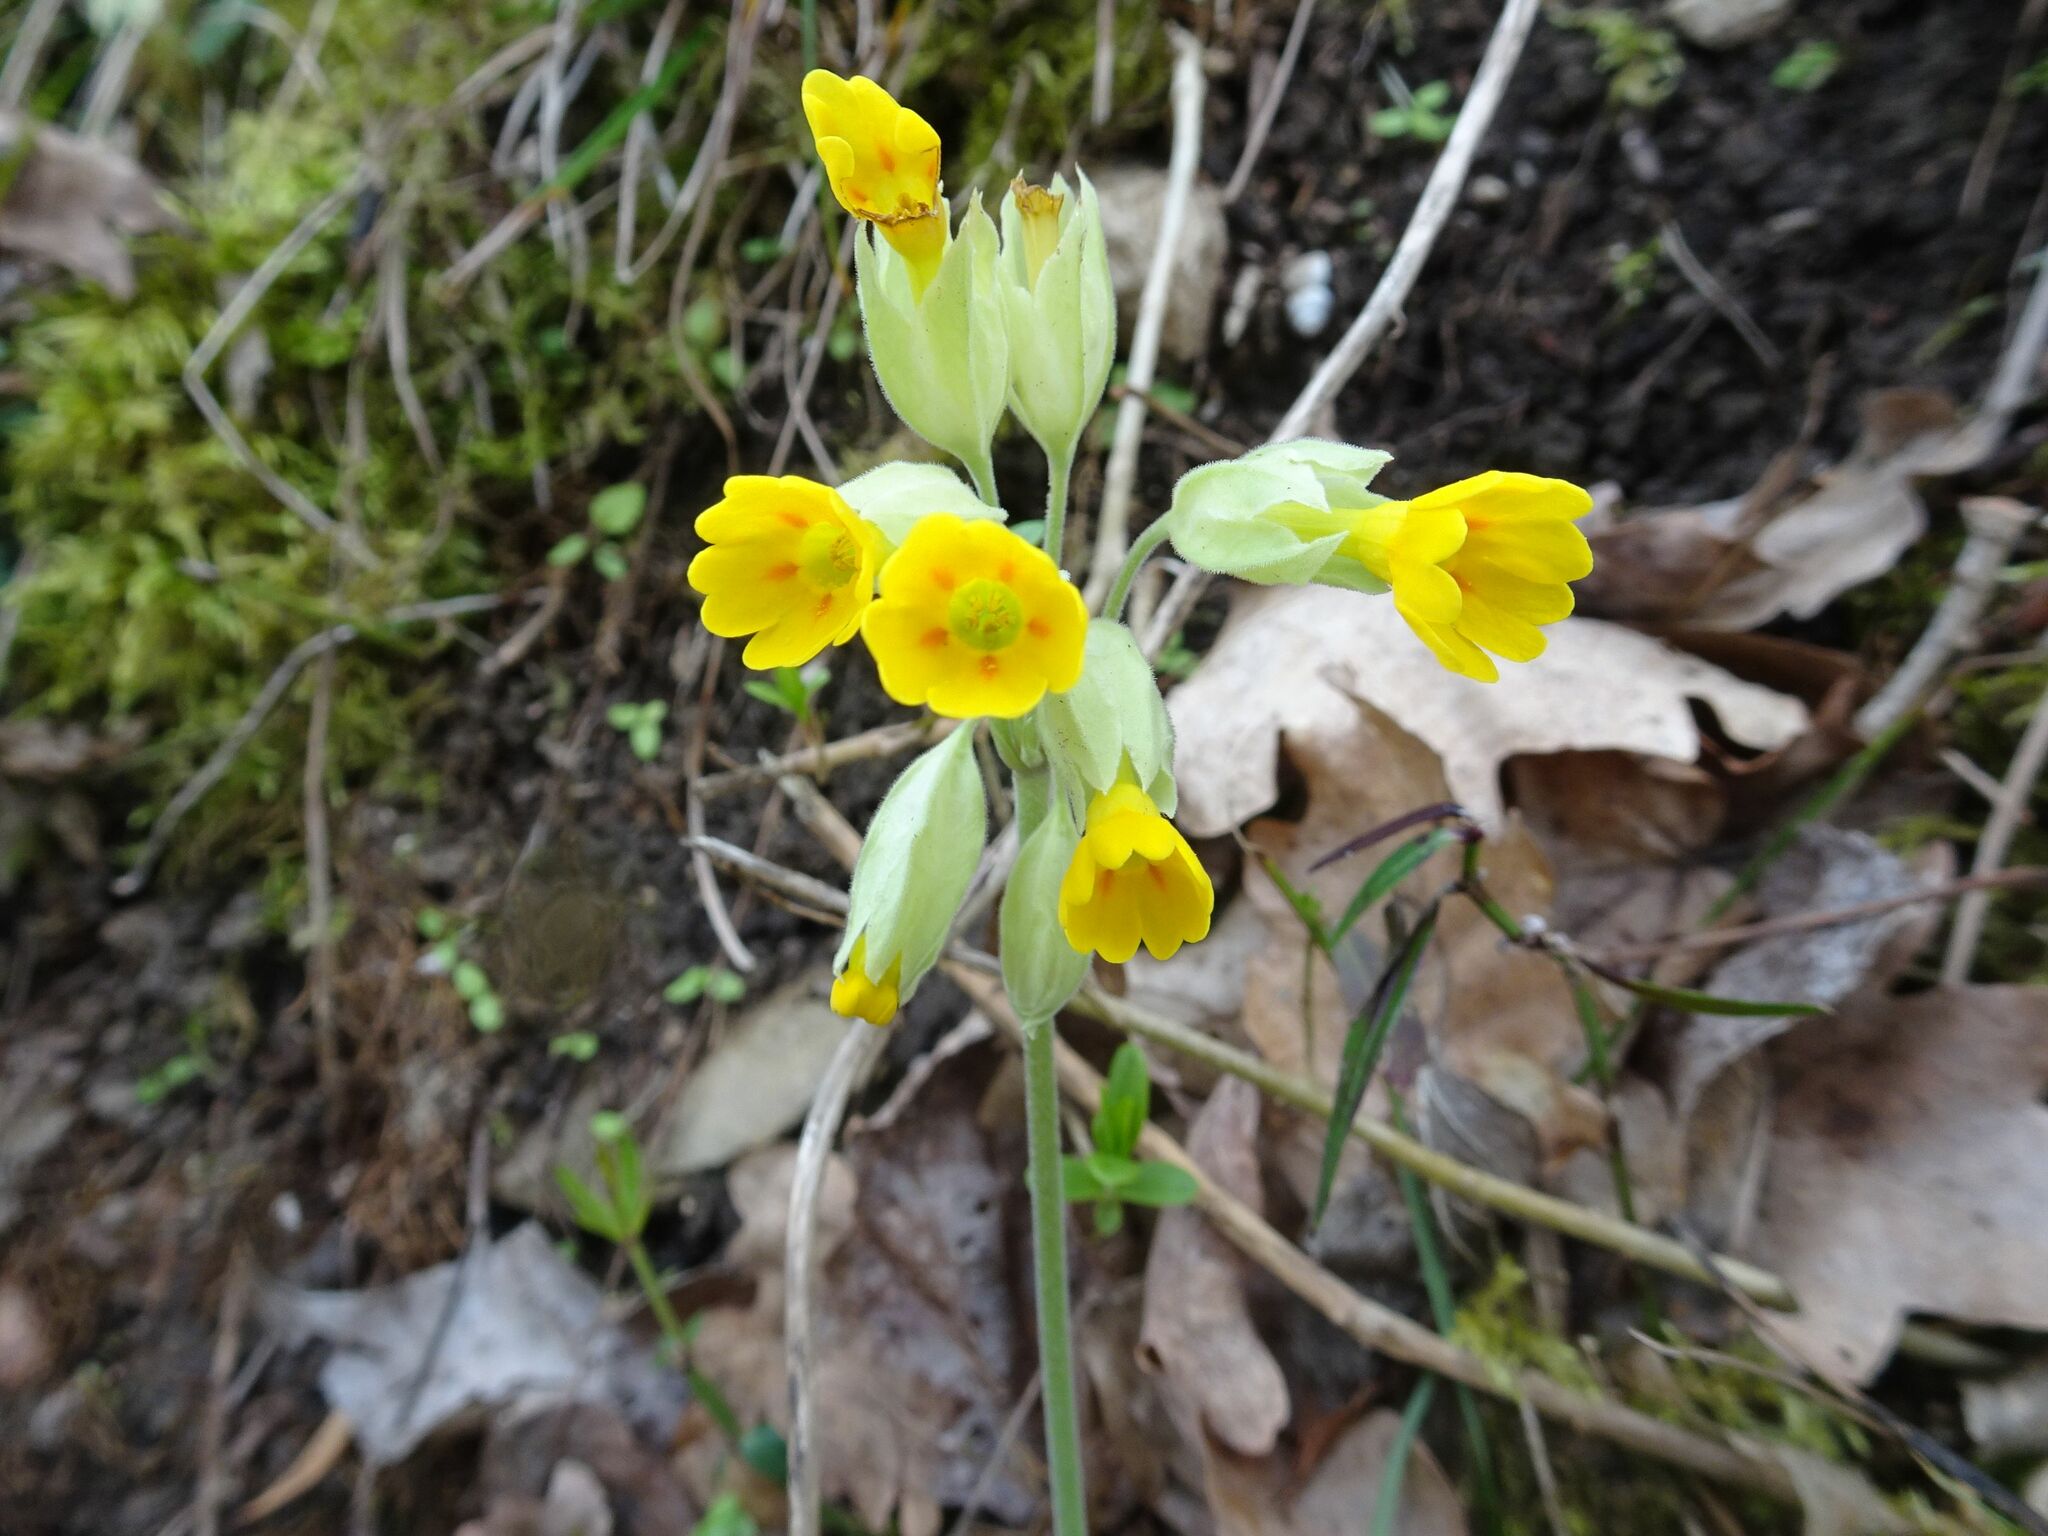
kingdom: Plantae
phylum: Tracheophyta
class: Magnoliopsida
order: Ericales
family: Primulaceae
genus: Primula
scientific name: Primula veris
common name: Cowslip
